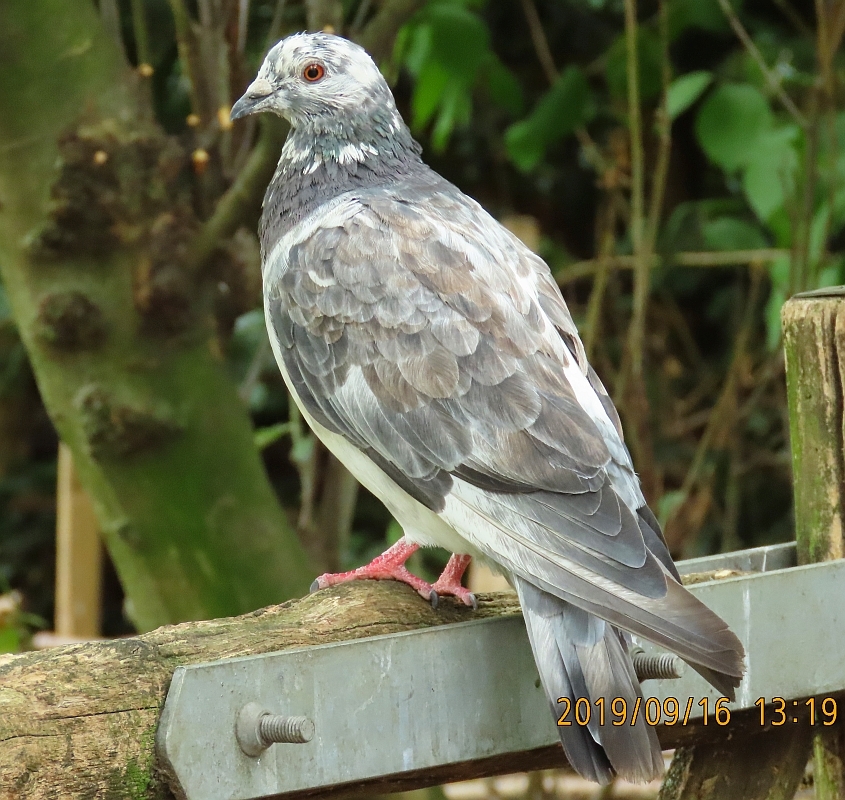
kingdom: Animalia
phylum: Chordata
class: Aves
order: Columbiformes
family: Columbidae
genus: Columba
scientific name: Columba livia
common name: Rock pigeon
